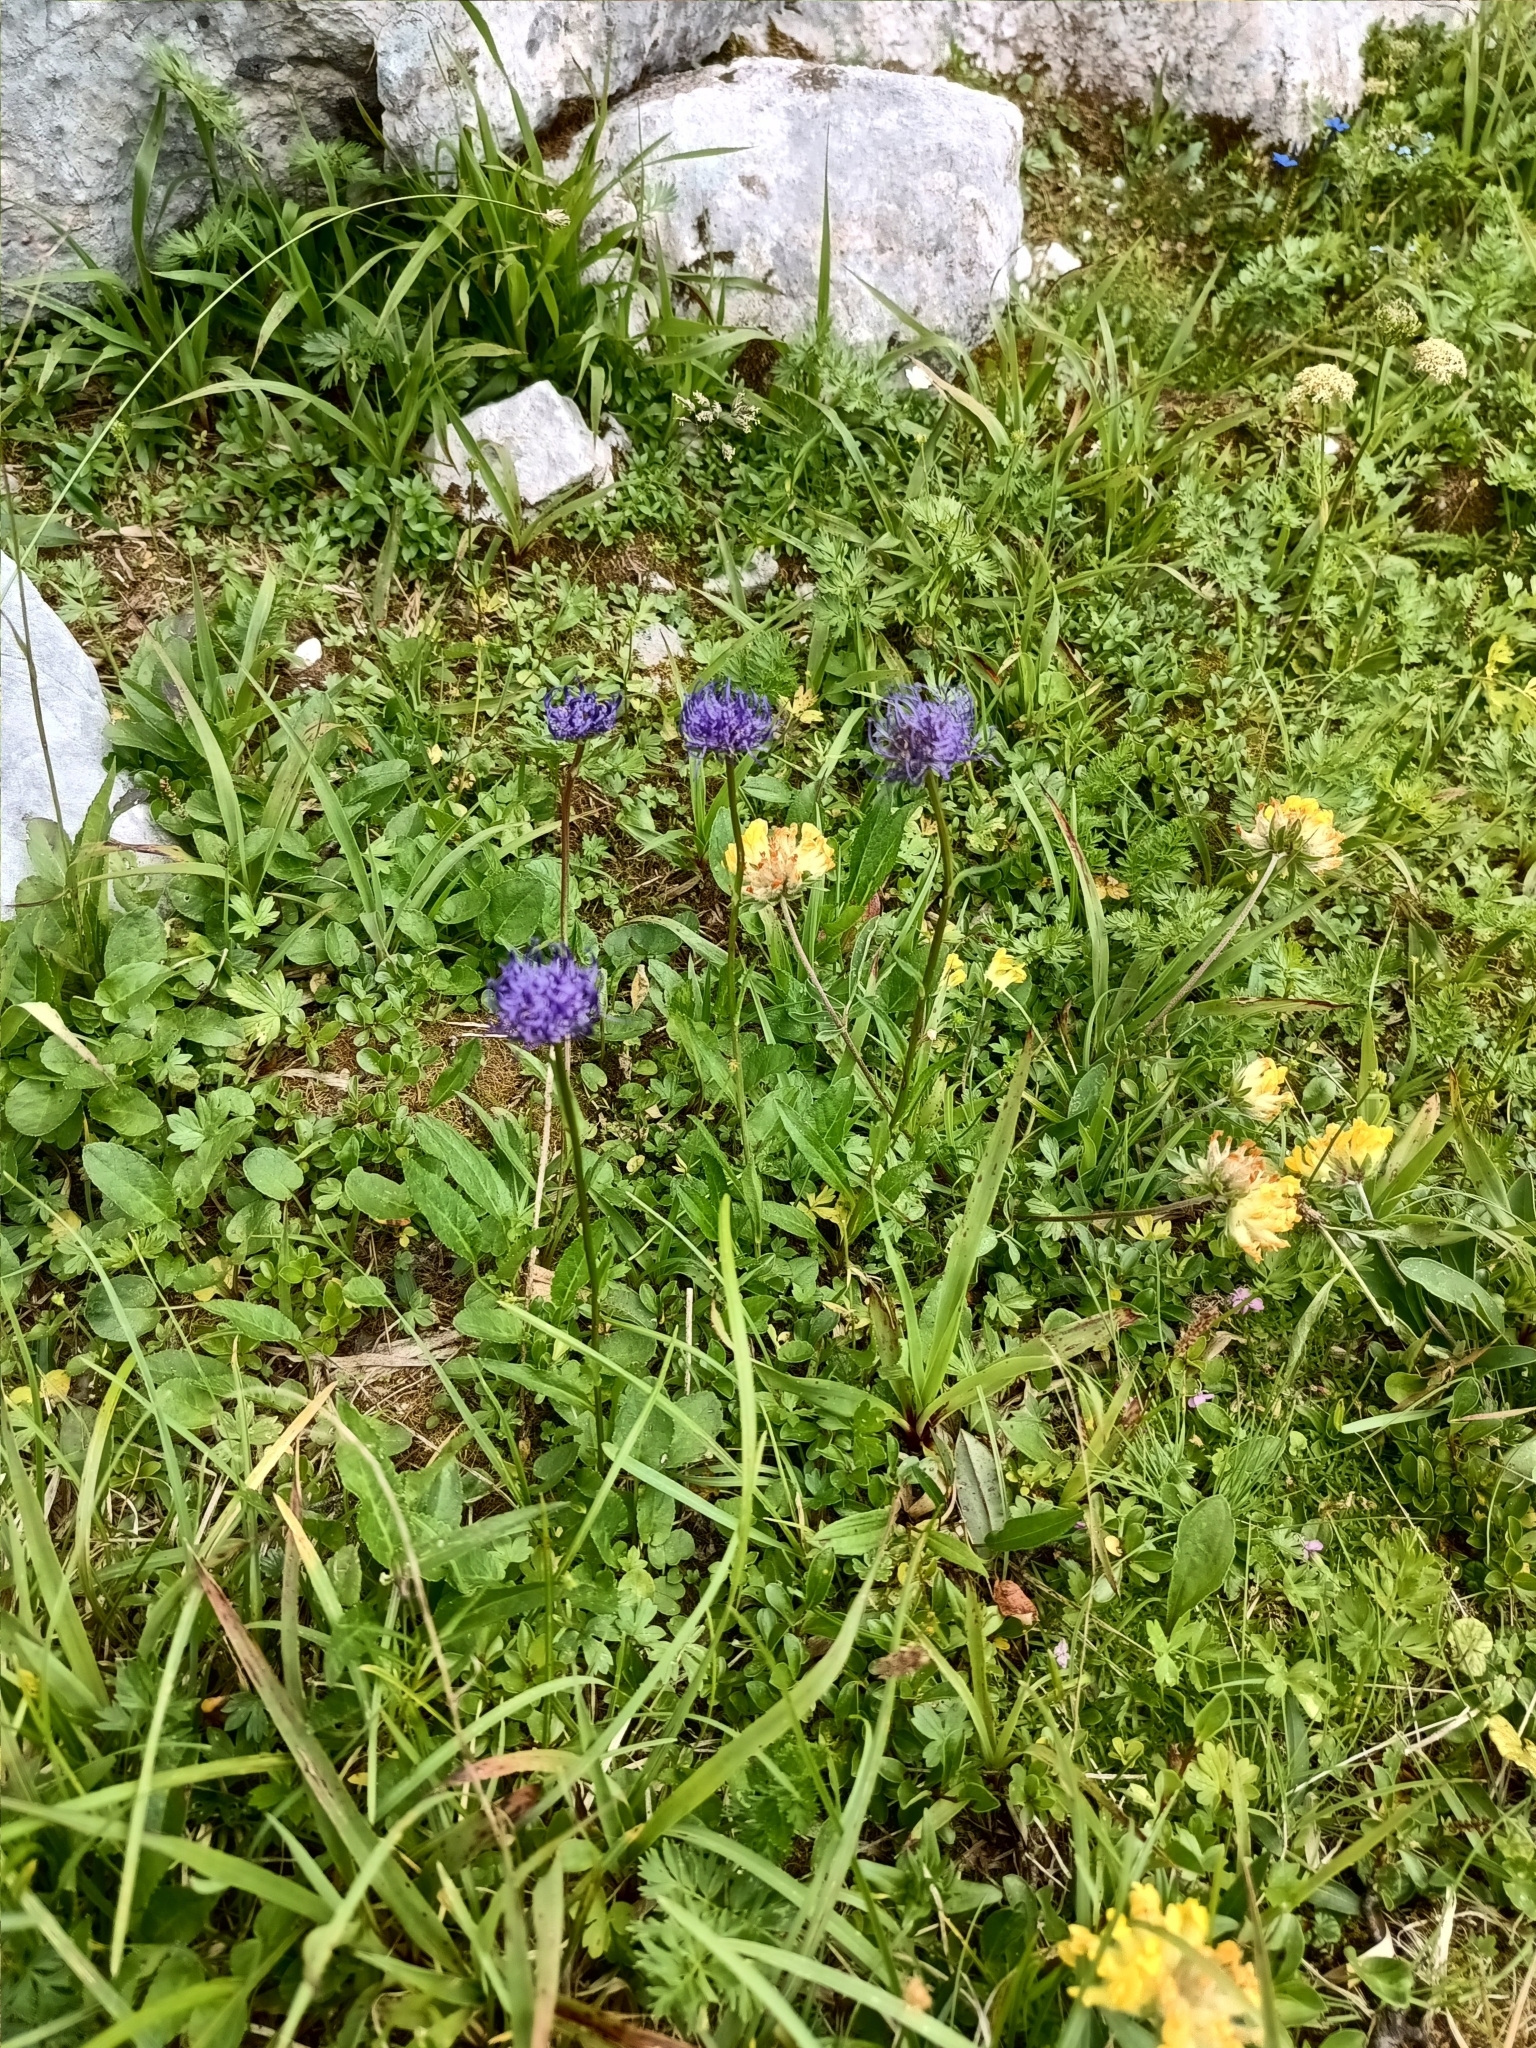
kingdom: Plantae
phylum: Tracheophyta
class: Magnoliopsida
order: Asterales
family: Campanulaceae
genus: Phyteuma
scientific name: Phyteuma orbiculare
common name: Round-headed rampion
